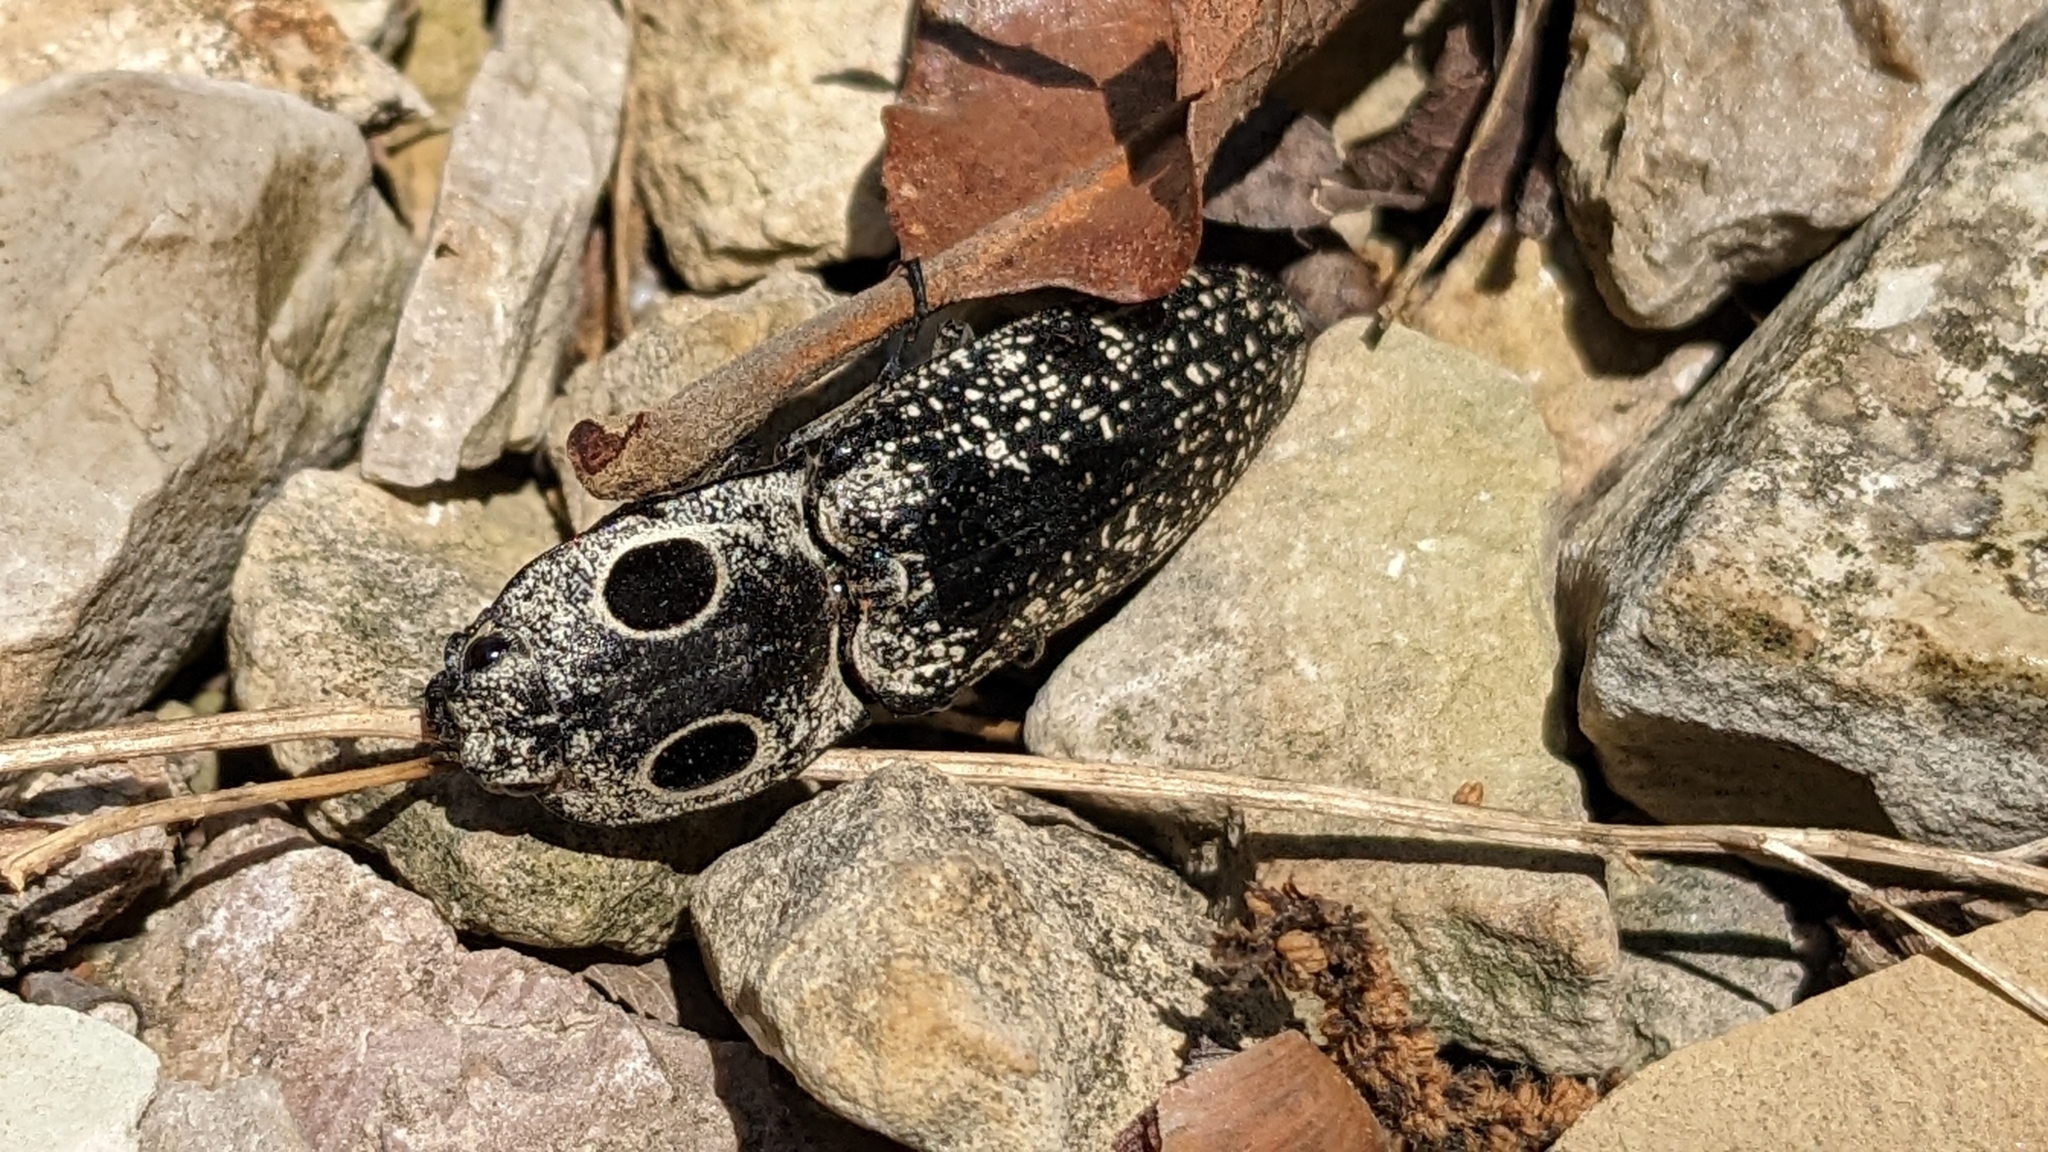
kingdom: Animalia
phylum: Arthropoda
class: Insecta
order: Coleoptera
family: Elateridae
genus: Alaus
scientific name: Alaus oculatus
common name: Eastern eyed click beetle
